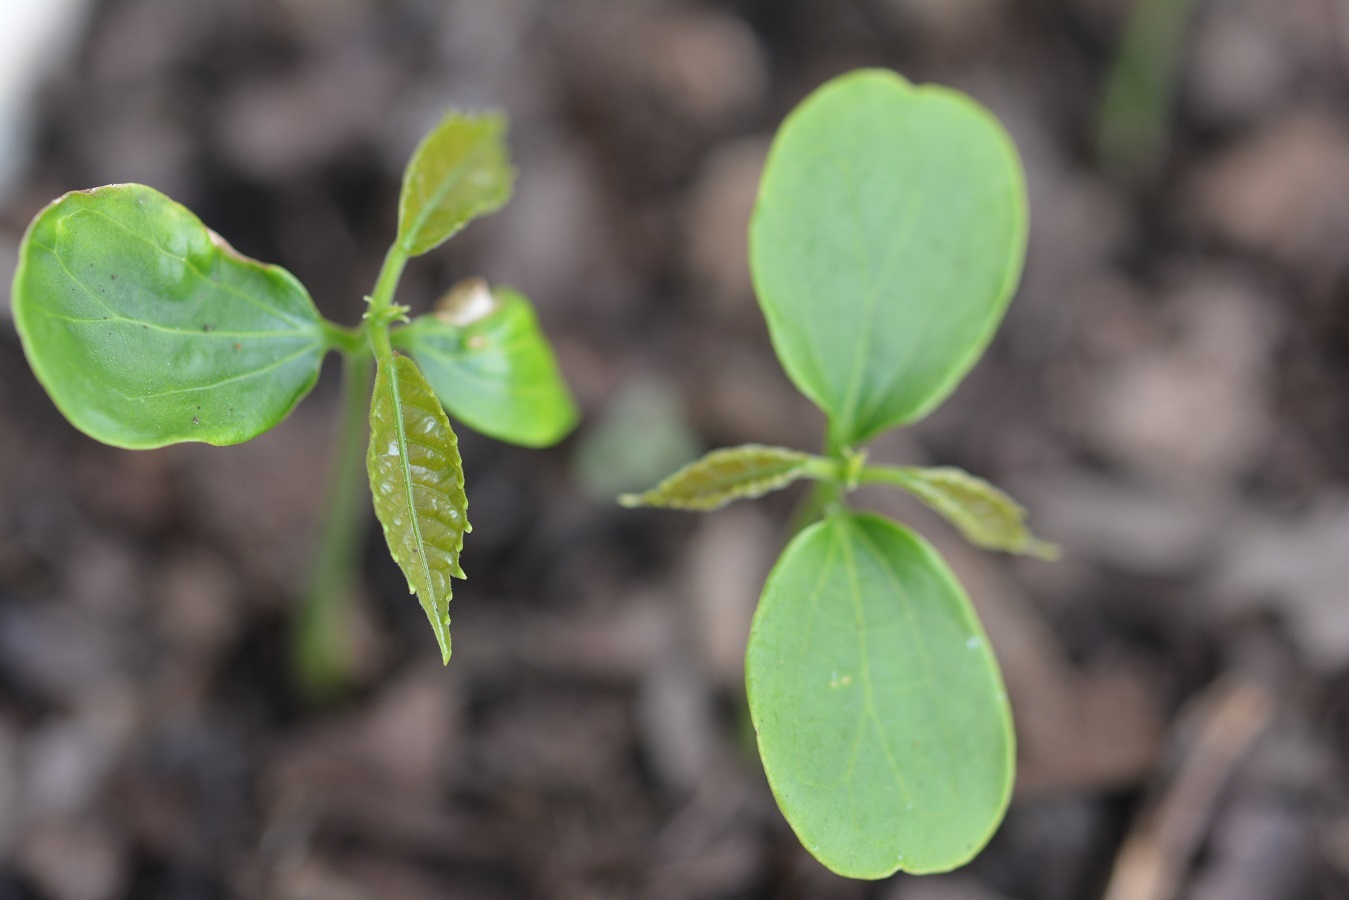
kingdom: Plantae
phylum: Tracheophyta
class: Magnoliopsida
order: Malpighiales
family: Euphorbiaceae
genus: Cleidion
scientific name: Cleidion castaneifolium
